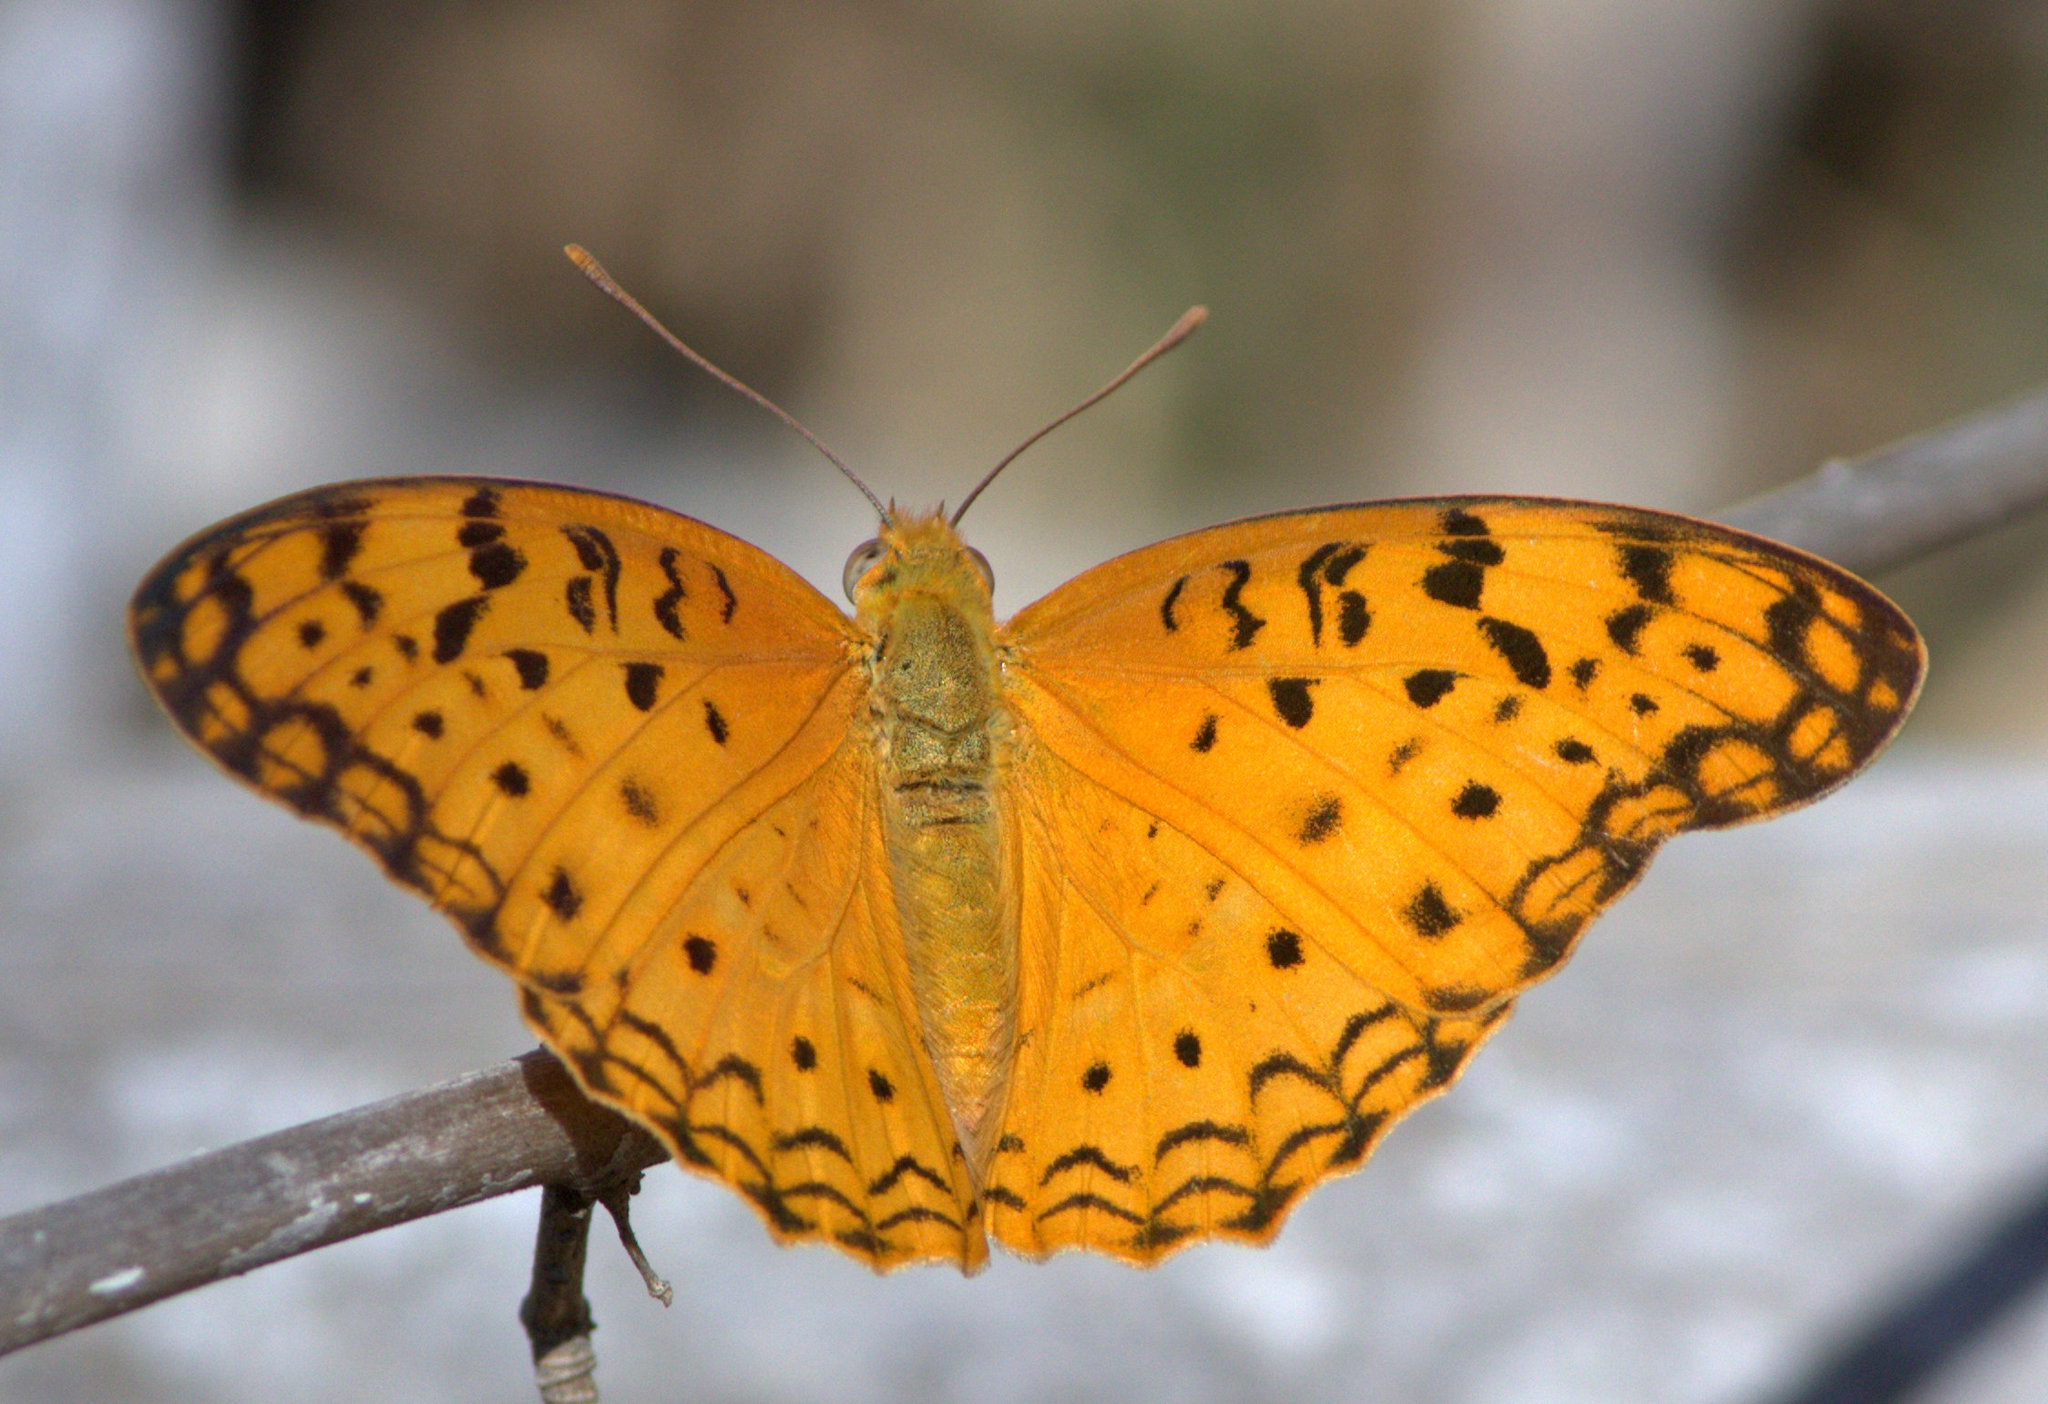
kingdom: Animalia
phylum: Arthropoda
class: Insecta
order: Lepidoptera
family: Nymphalidae
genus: Phalanta
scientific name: Phalanta phalantha
